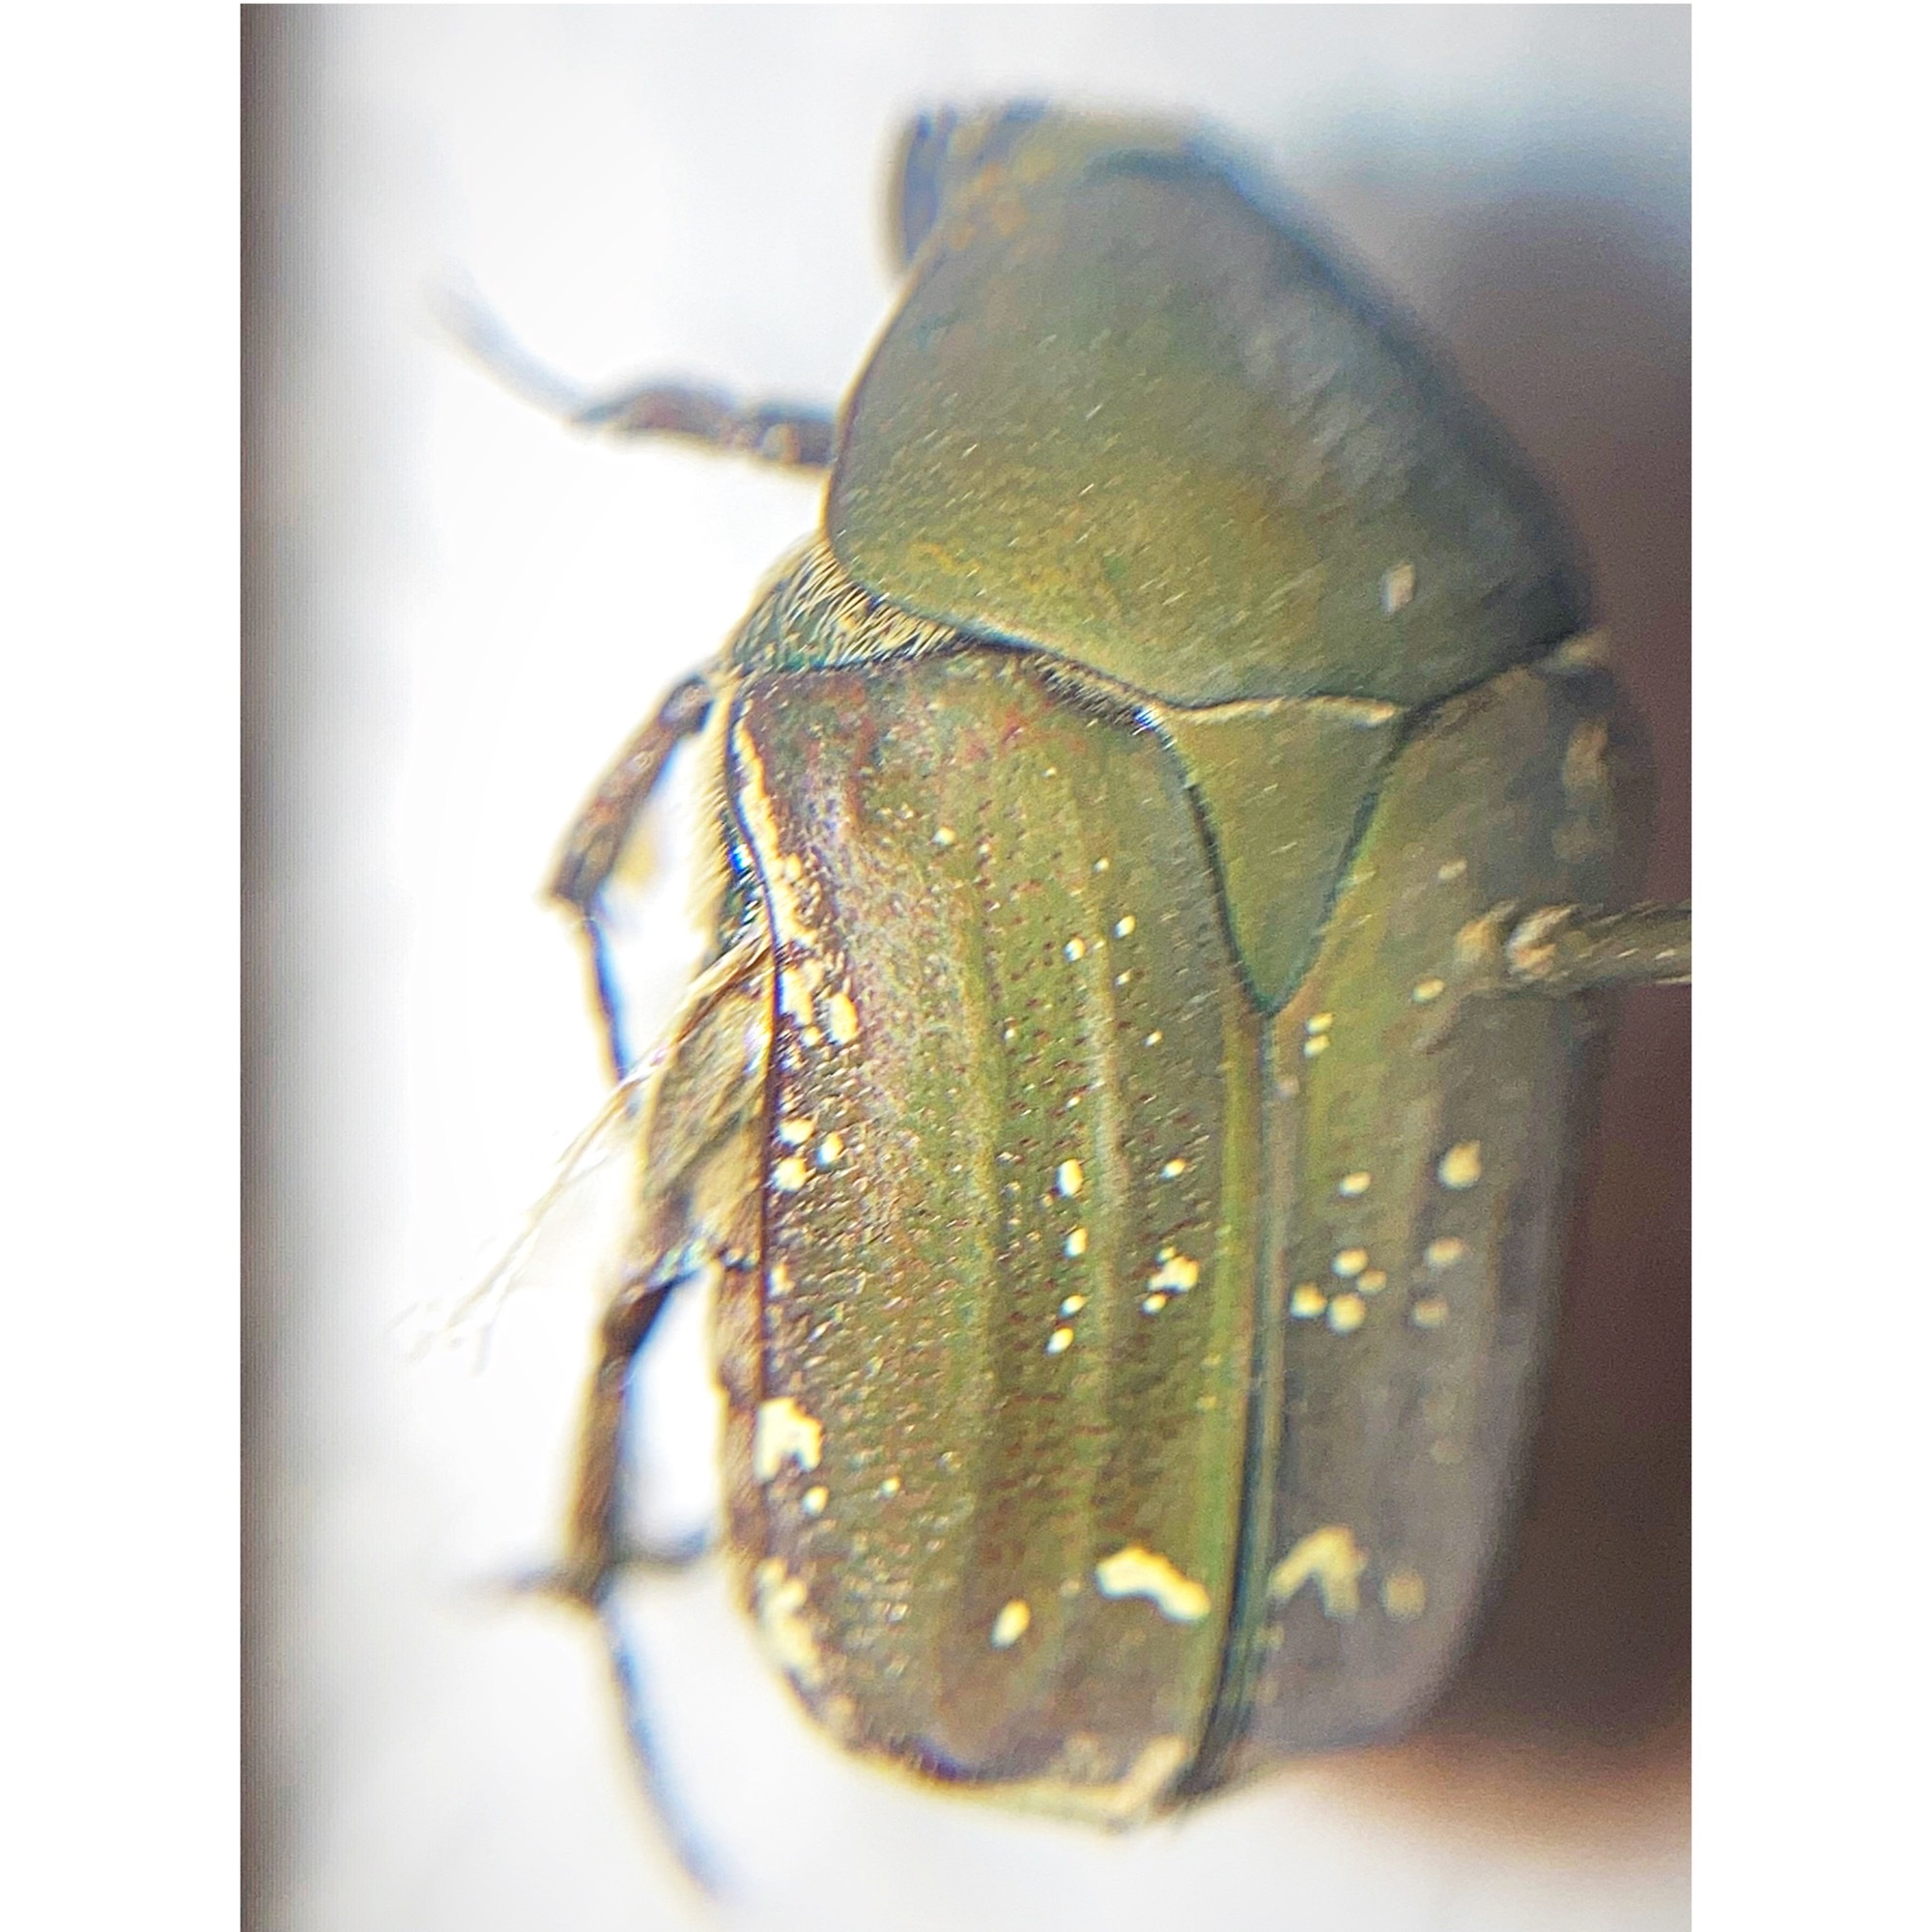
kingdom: Animalia
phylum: Arthropoda
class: Insecta
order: Coleoptera
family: Scarabaeidae
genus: Euphoria
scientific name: Euphoria herbacea
